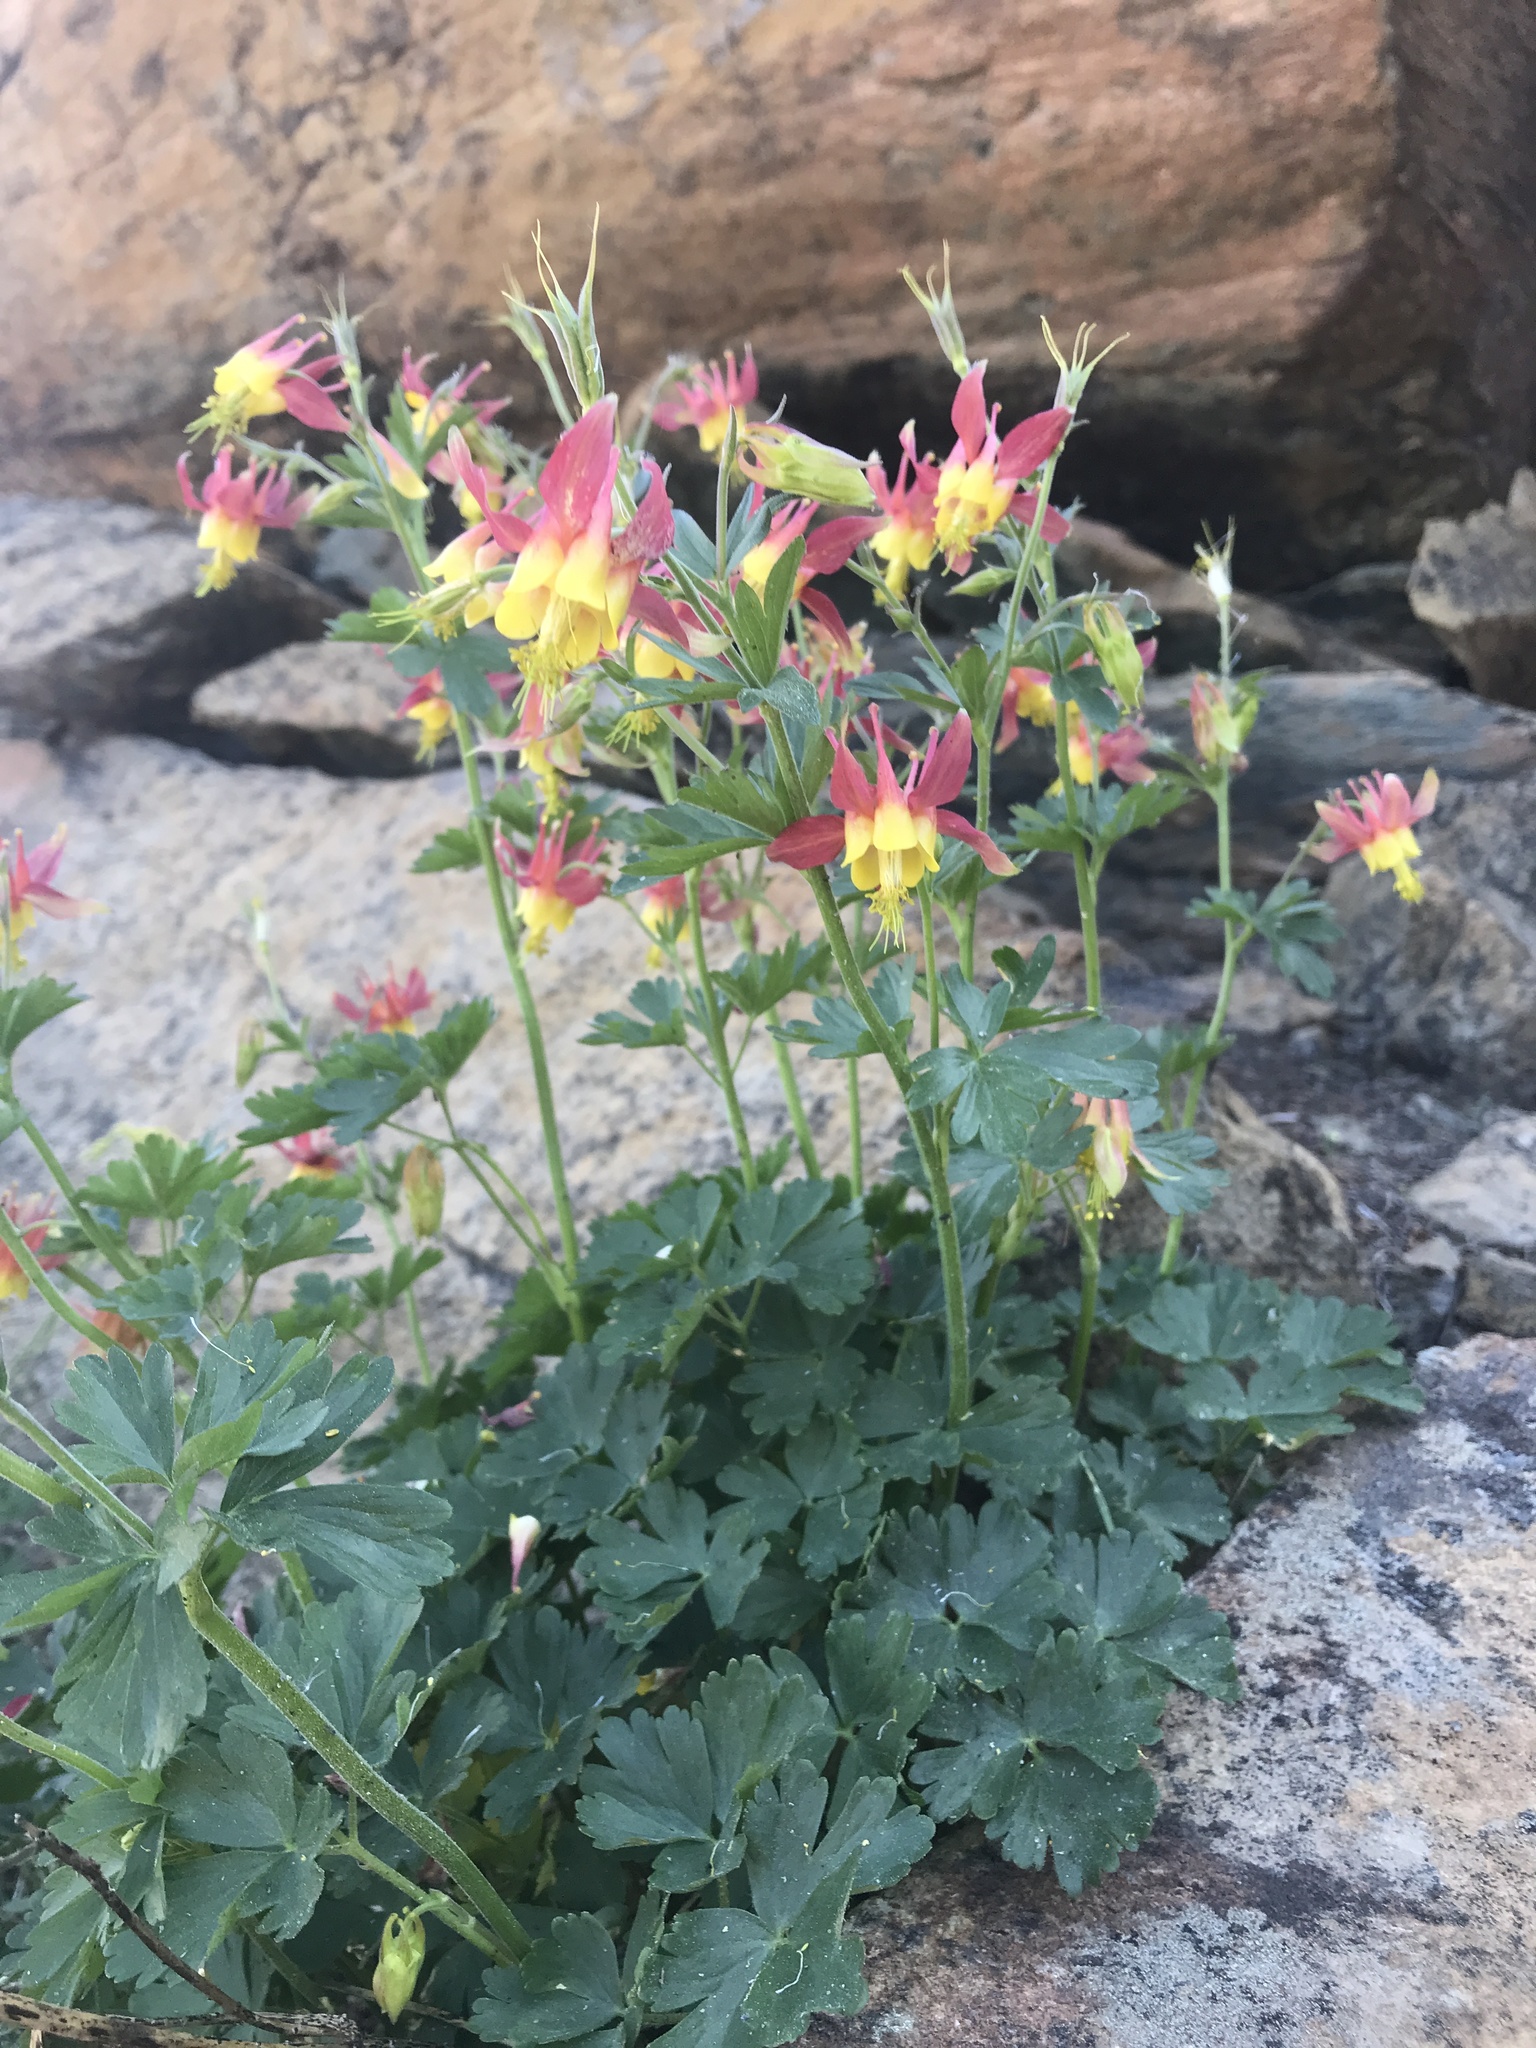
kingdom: Plantae
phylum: Tracheophyta
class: Magnoliopsida
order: Ranunculales
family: Ranunculaceae
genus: Aquilegia
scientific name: Aquilegia formosa
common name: Sitka columbine
